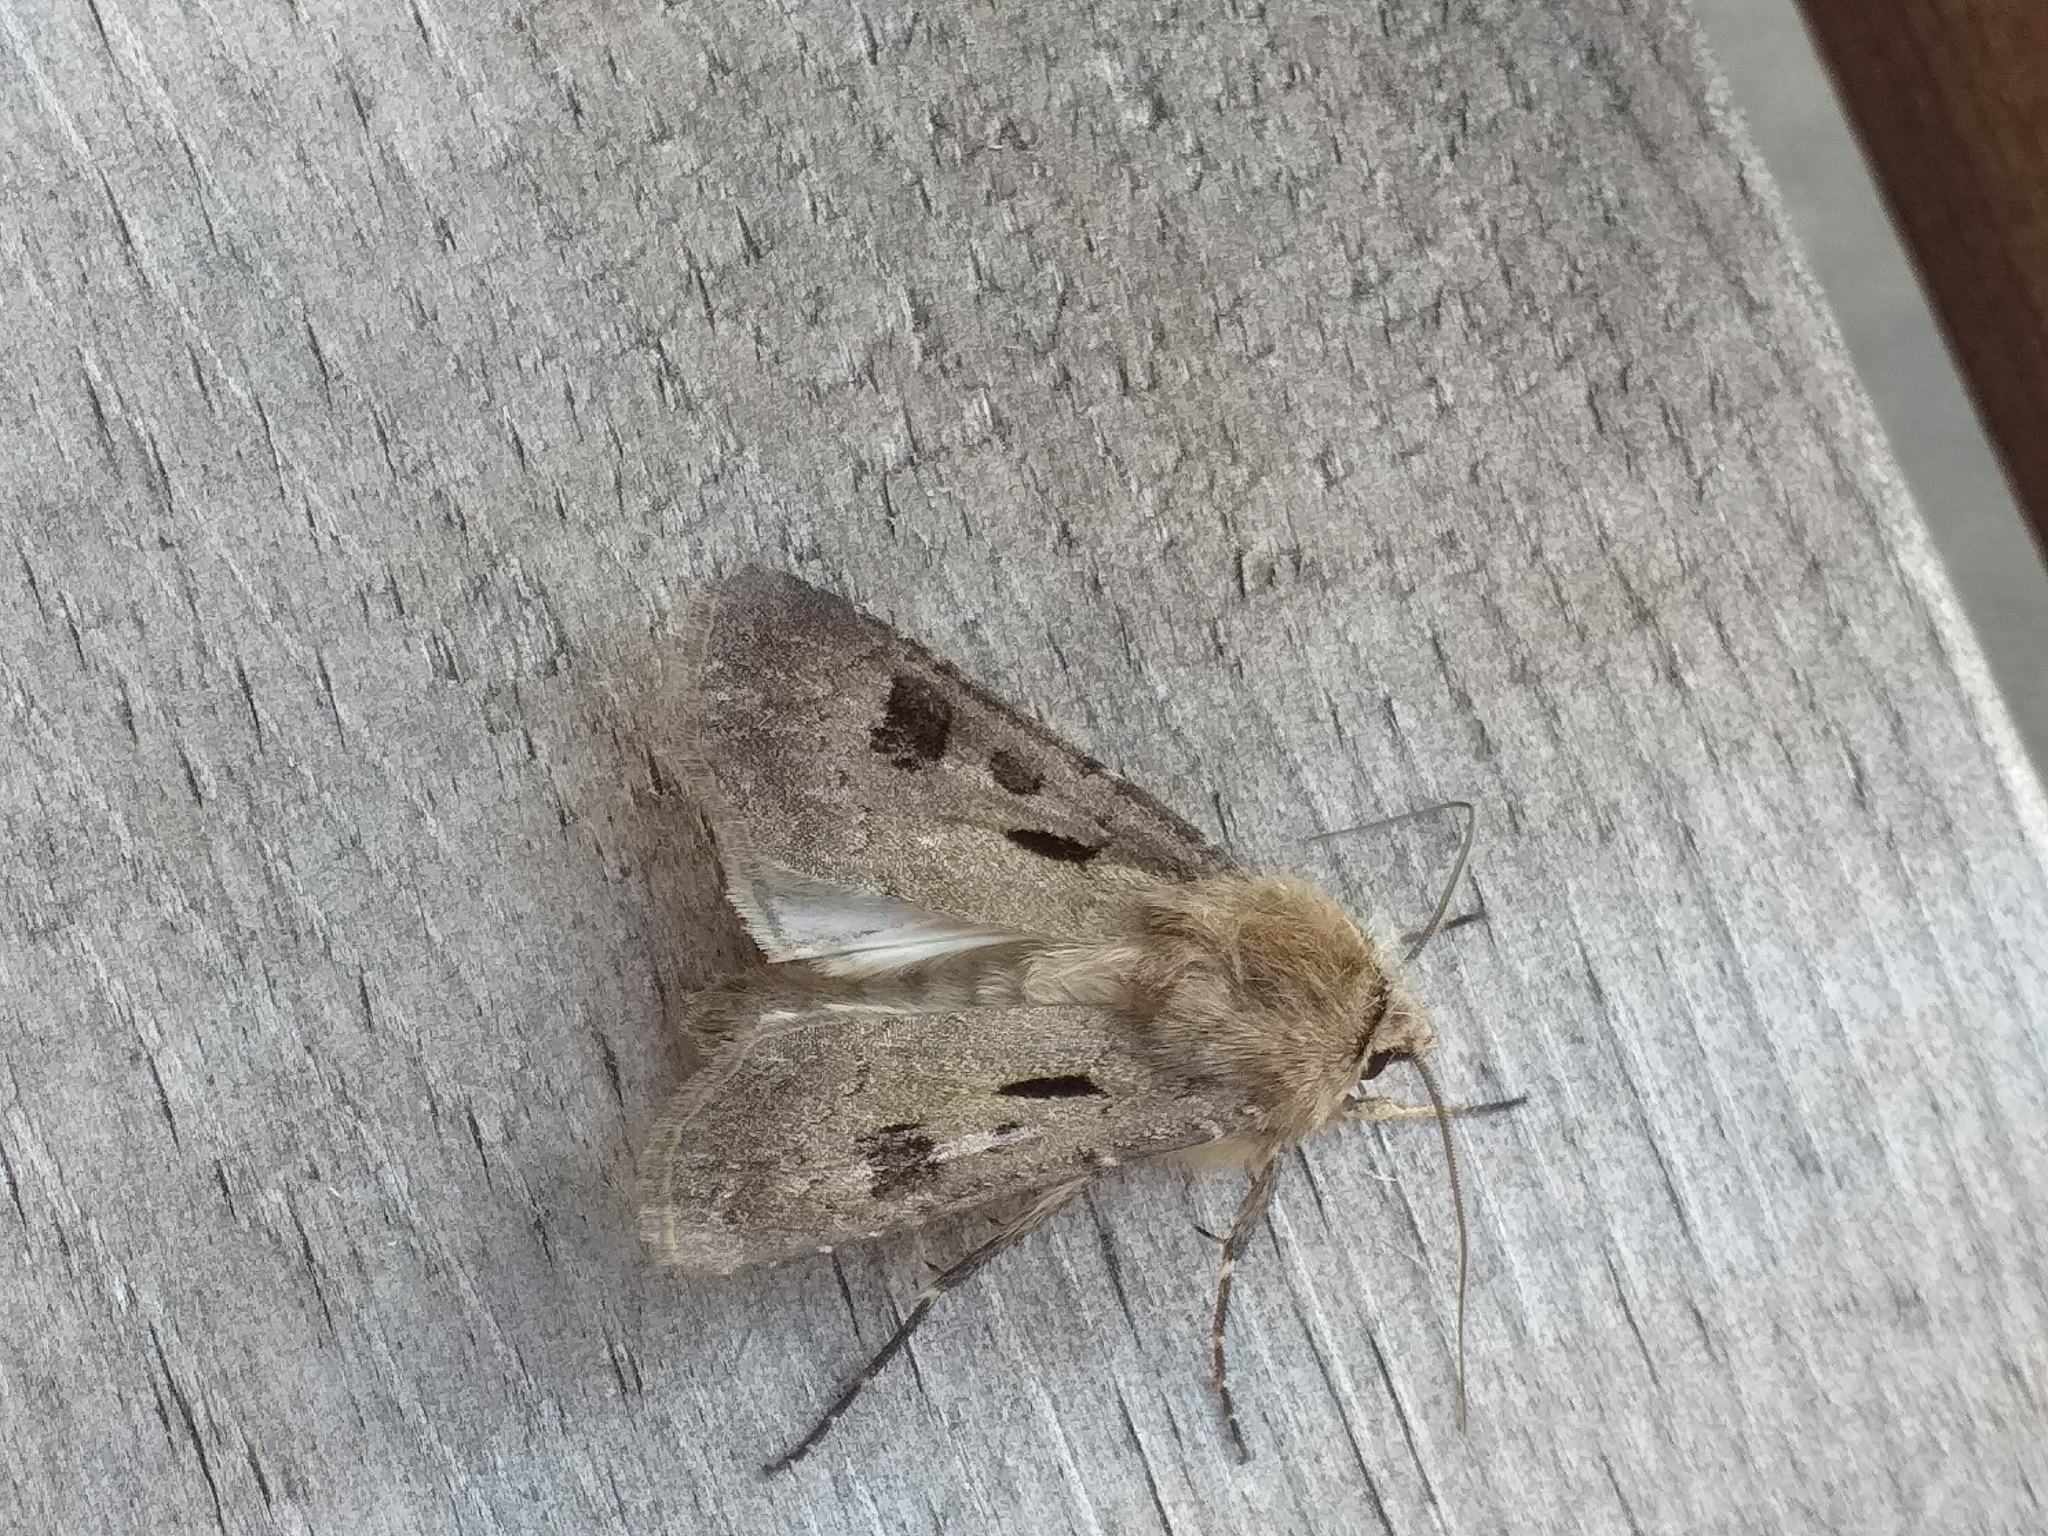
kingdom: Animalia
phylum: Arthropoda
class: Insecta
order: Lepidoptera
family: Noctuidae
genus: Agrotis
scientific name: Agrotis exclamationis
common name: Heart and dart
